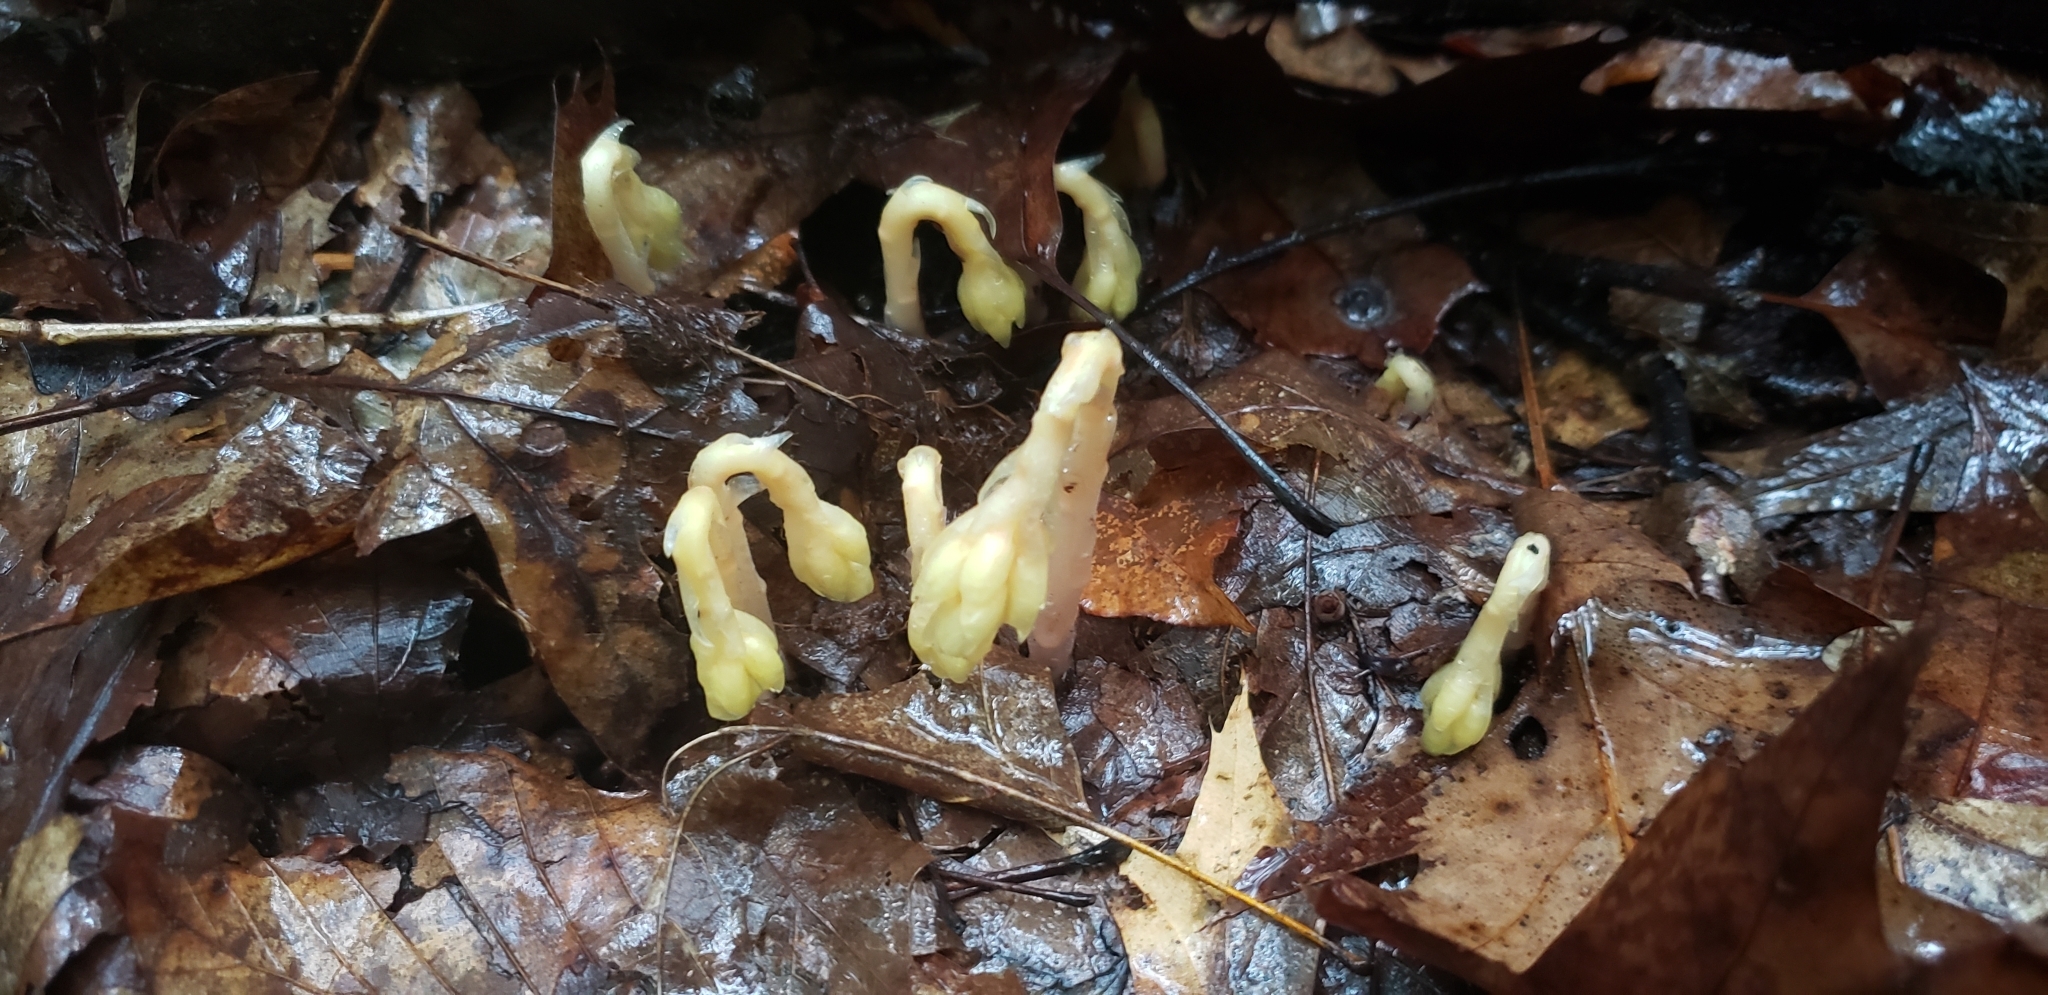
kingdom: Plantae
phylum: Tracheophyta
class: Magnoliopsida
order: Ericales
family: Ericaceae
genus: Hypopitys
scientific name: Hypopitys monotropa
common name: Yellow bird's-nest
